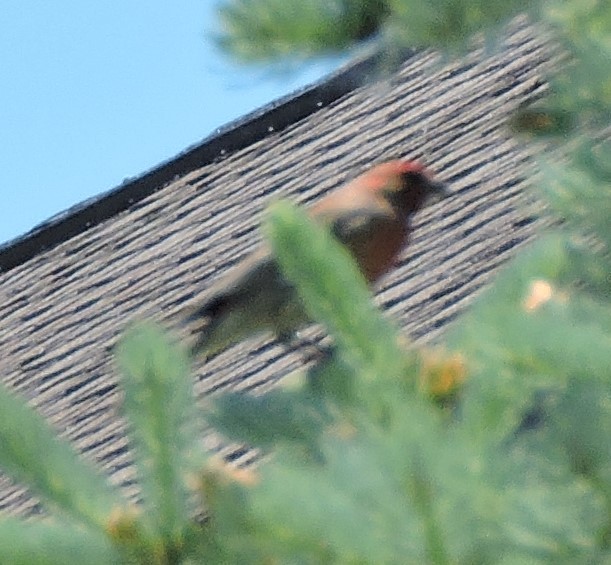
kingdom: Animalia
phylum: Chordata
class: Aves
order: Passeriformes
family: Fringillidae
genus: Haemorhous
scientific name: Haemorhous mexicanus
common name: House finch
